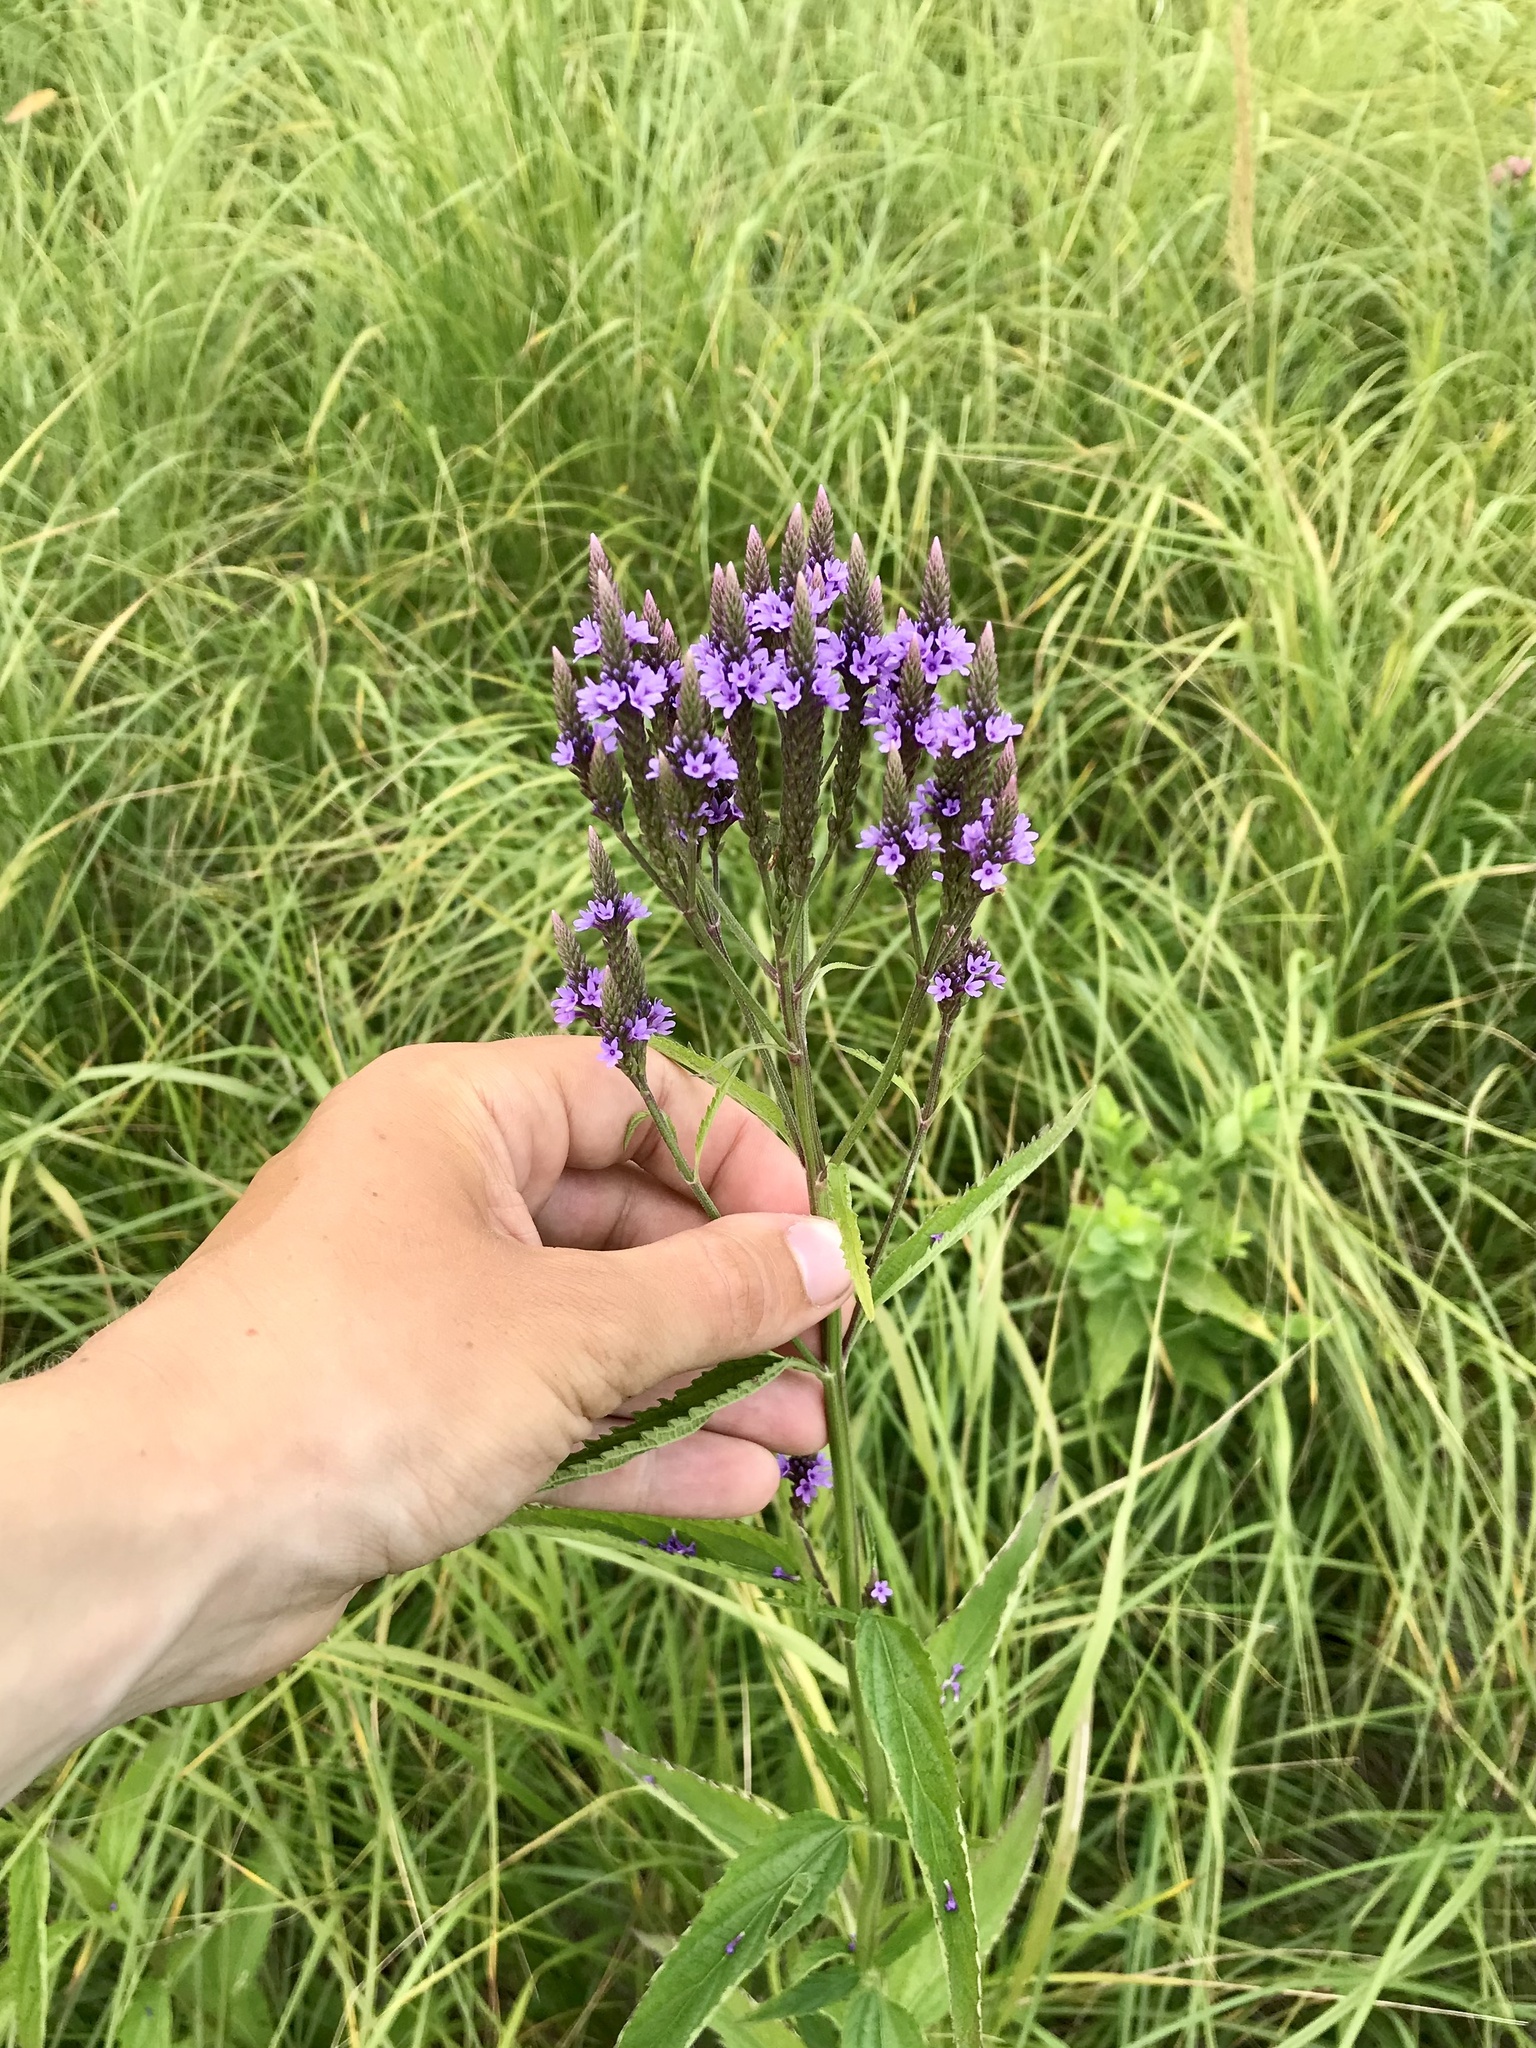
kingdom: Plantae
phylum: Tracheophyta
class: Magnoliopsida
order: Lamiales
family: Verbenaceae
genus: Verbena
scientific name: Verbena hastata
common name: American blue vervain
